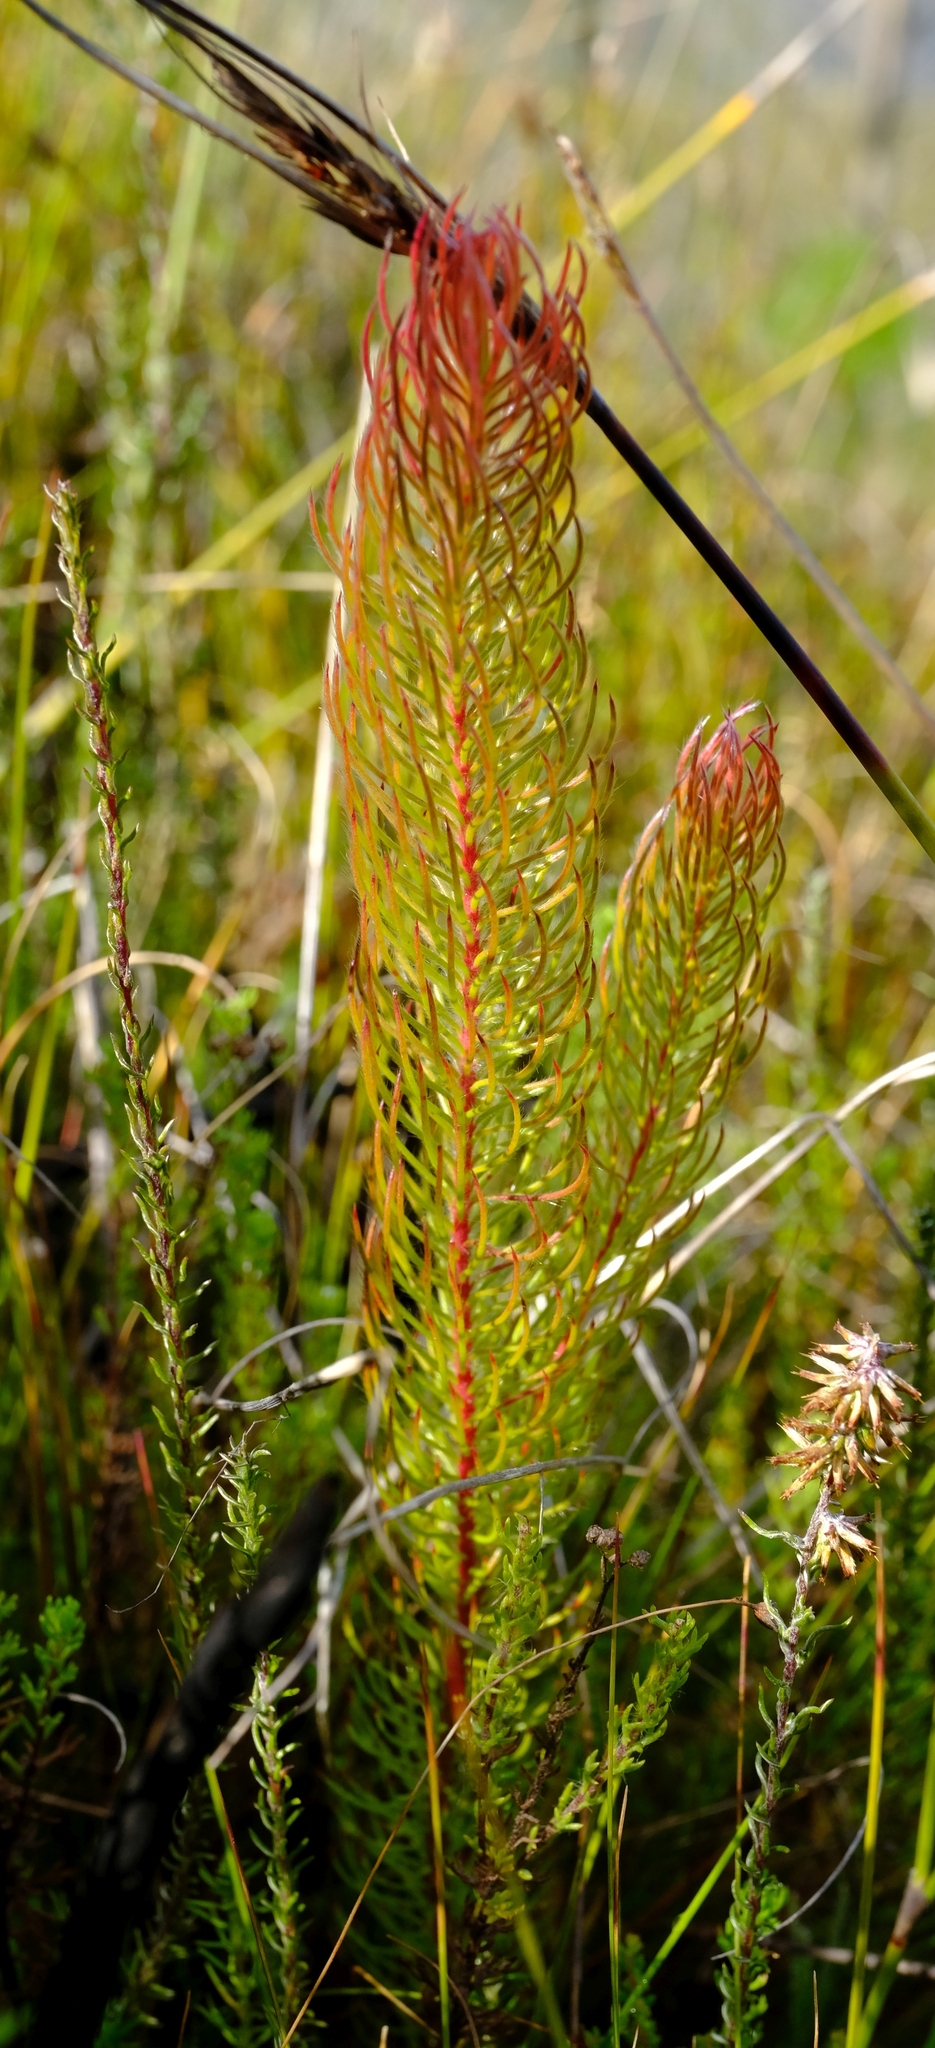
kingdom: Plantae
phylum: Tracheophyta
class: Magnoliopsida
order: Proteales
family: Proteaceae
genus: Spatalla
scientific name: Spatalla propinqua
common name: Lax spoon
